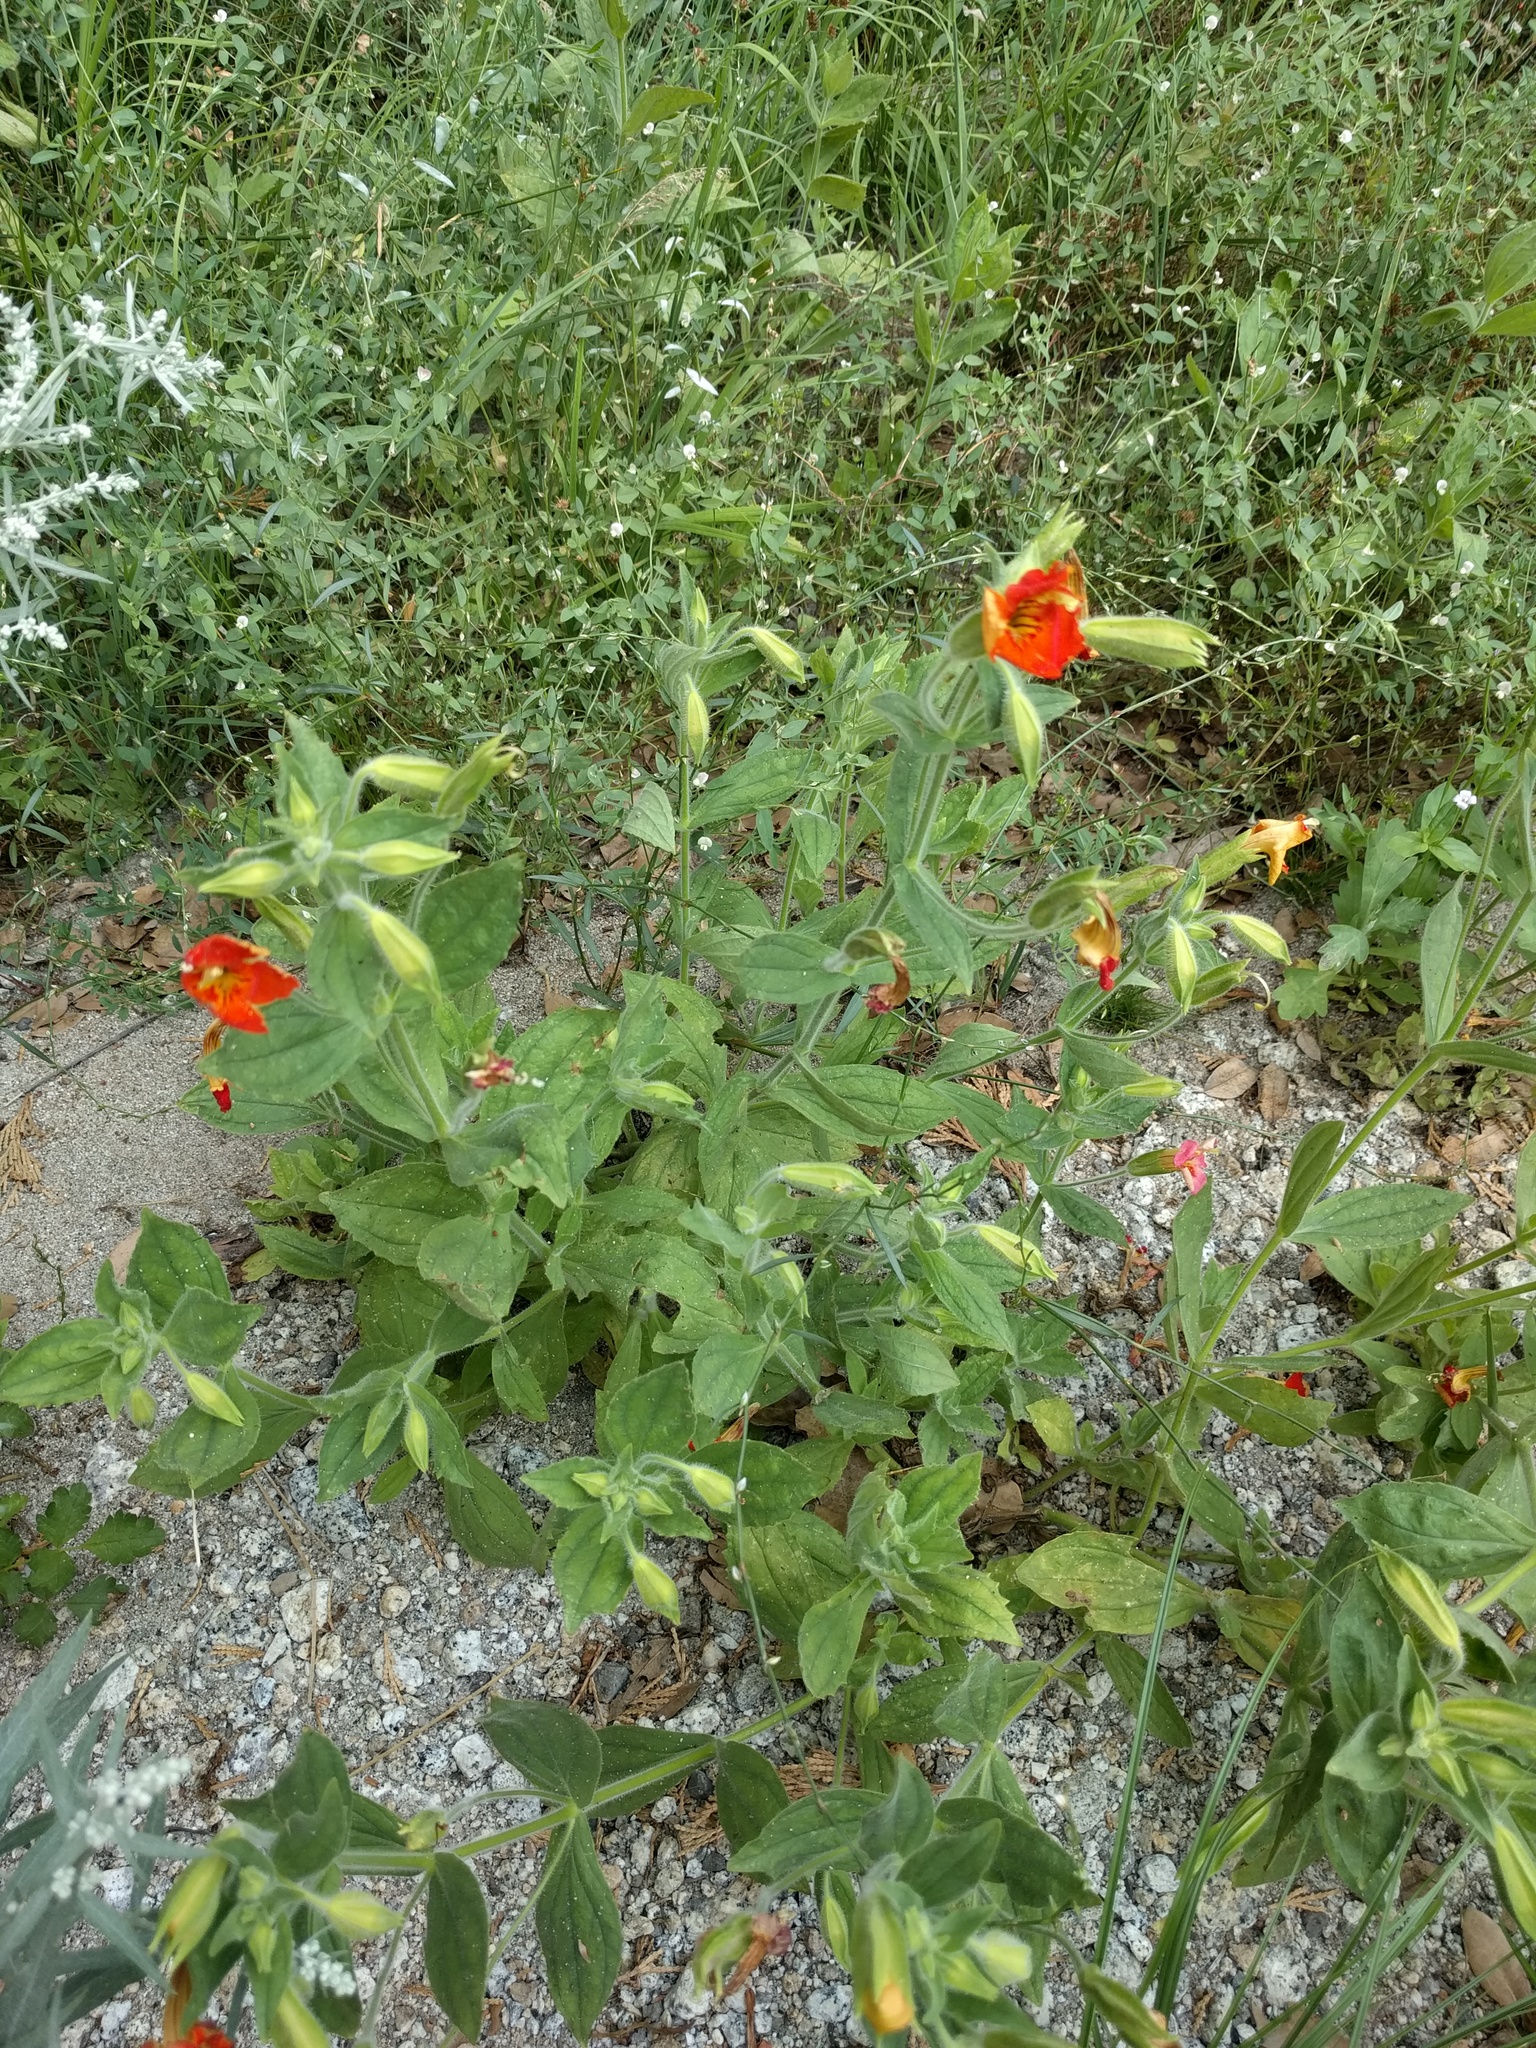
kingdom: Plantae
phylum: Tracheophyta
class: Magnoliopsida
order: Lamiales
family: Phrymaceae
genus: Erythranthe
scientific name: Erythranthe cardinalis
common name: Scarlet monkey-flower
